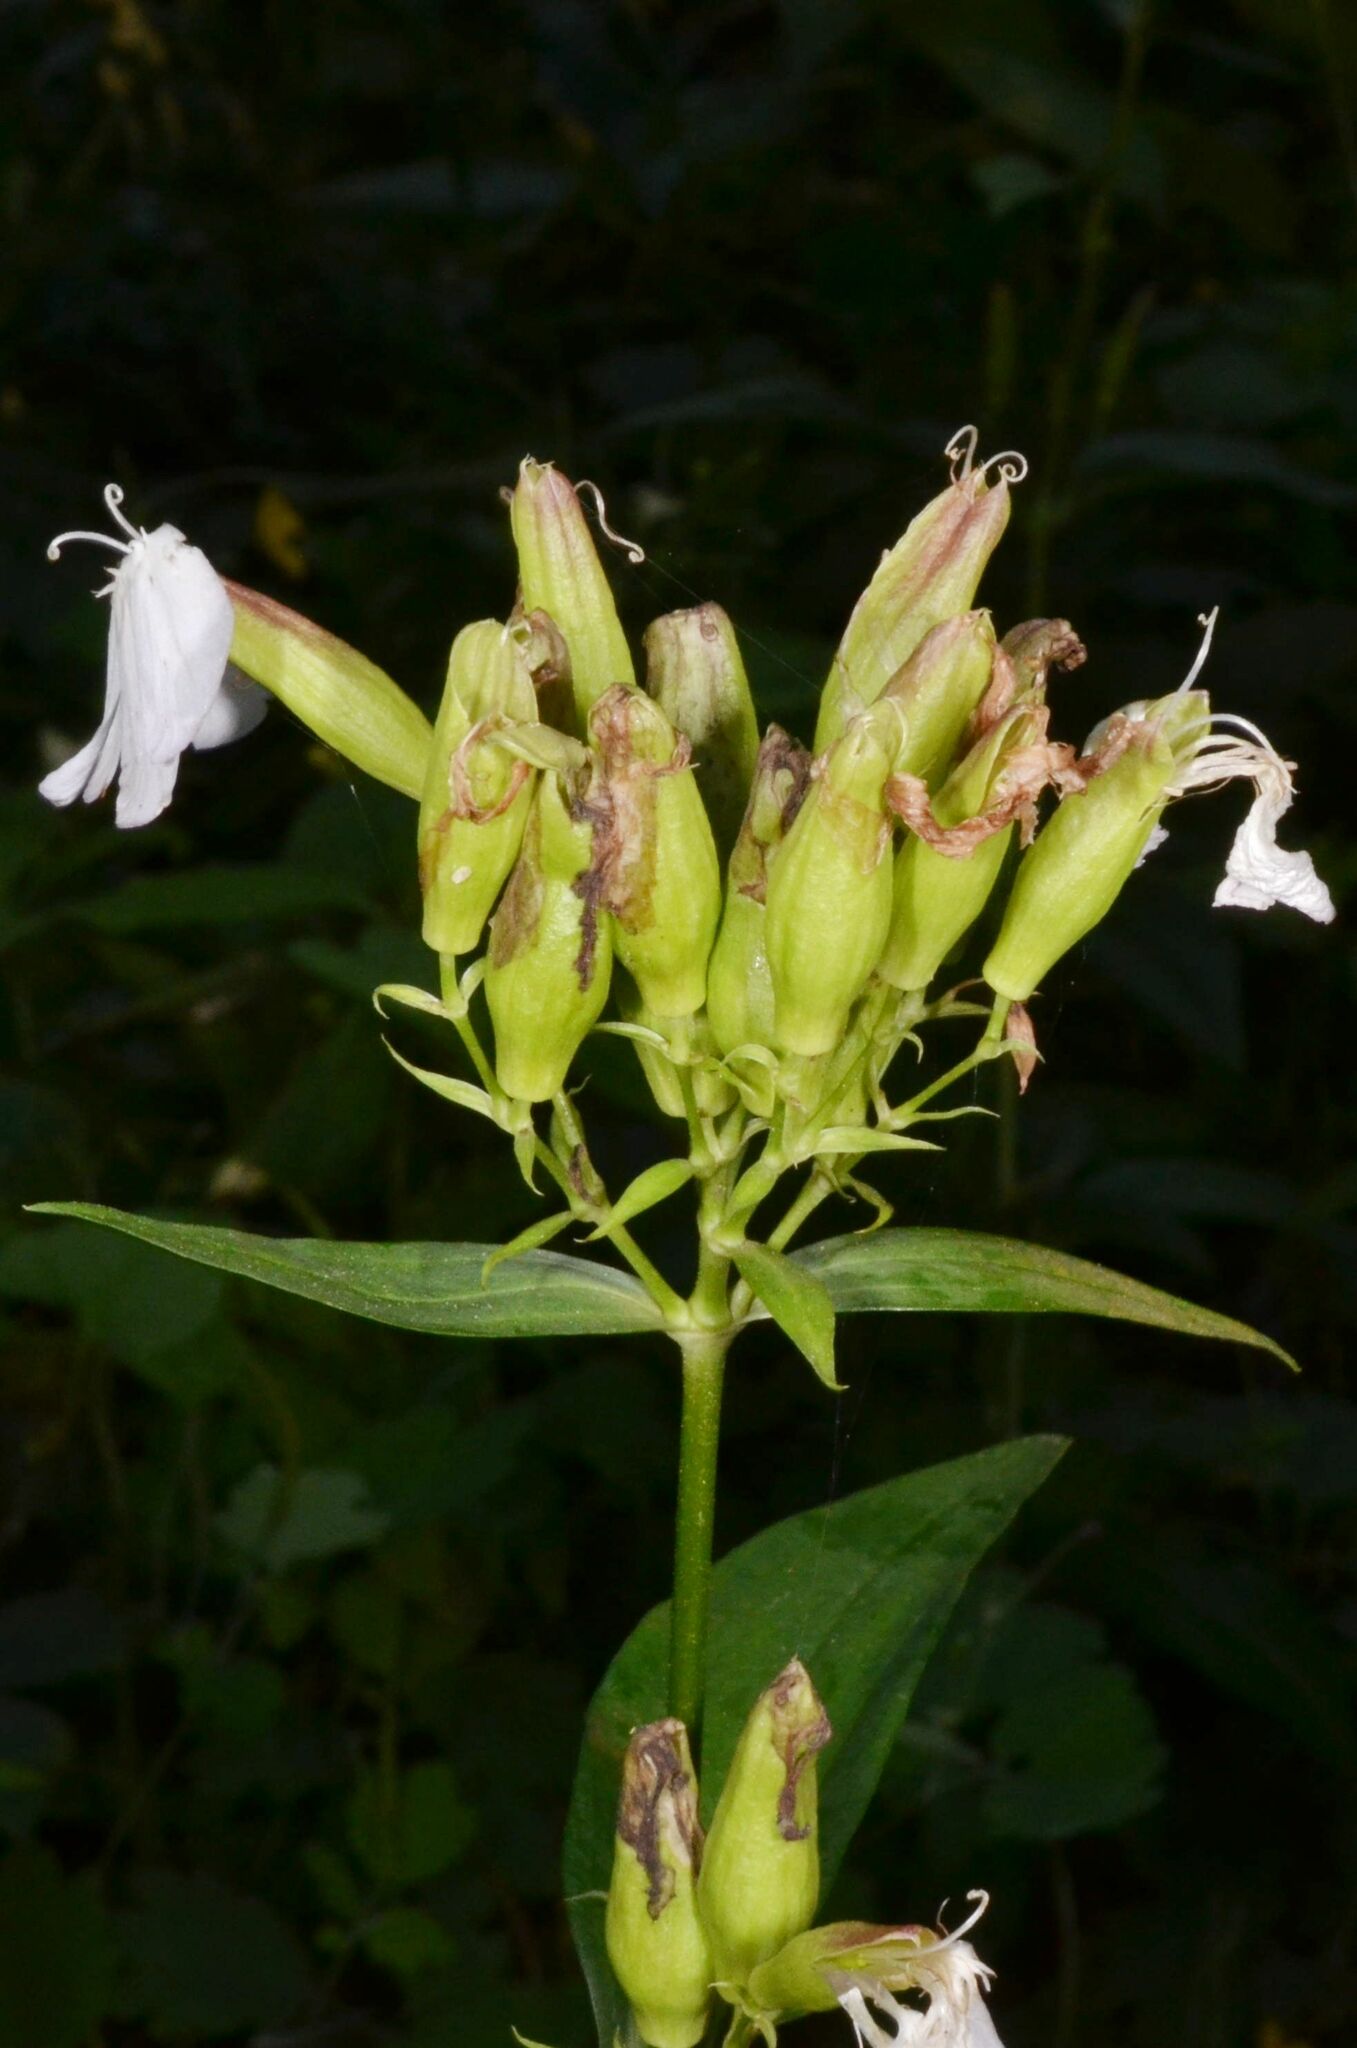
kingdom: Plantae
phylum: Tracheophyta
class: Magnoliopsida
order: Caryophyllales
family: Caryophyllaceae
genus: Saponaria
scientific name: Saponaria officinalis
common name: Soapwort
